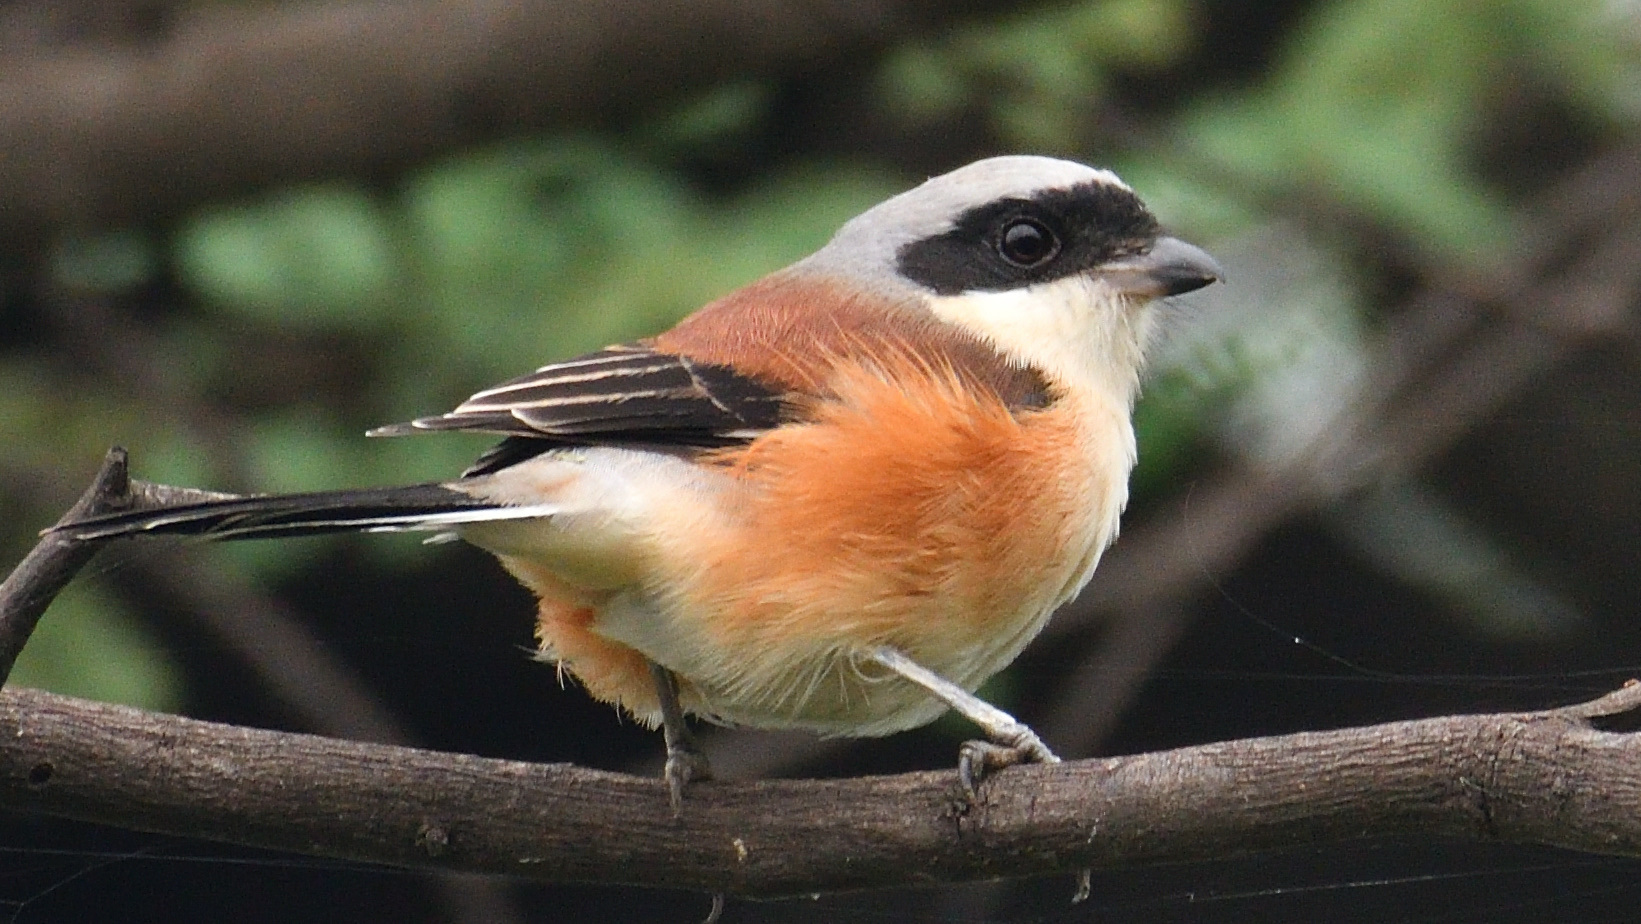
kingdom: Animalia
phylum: Chordata
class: Aves
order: Passeriformes
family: Laniidae
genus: Lanius
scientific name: Lanius vittatus
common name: Bay-backed shrike
